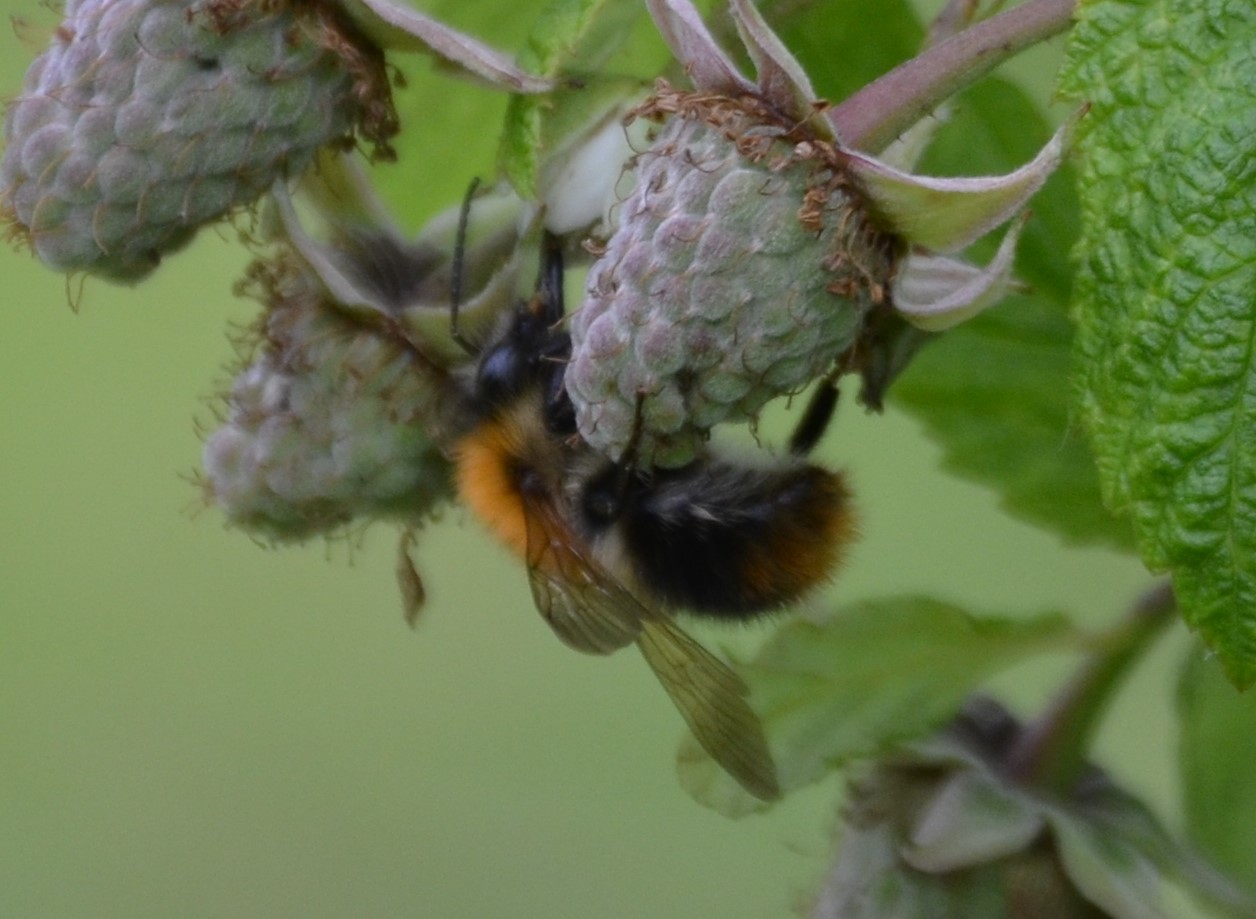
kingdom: Animalia
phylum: Arthropoda
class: Insecta
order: Hymenoptera
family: Apidae
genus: Bombus
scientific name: Bombus pascuorum
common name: Common carder bee
